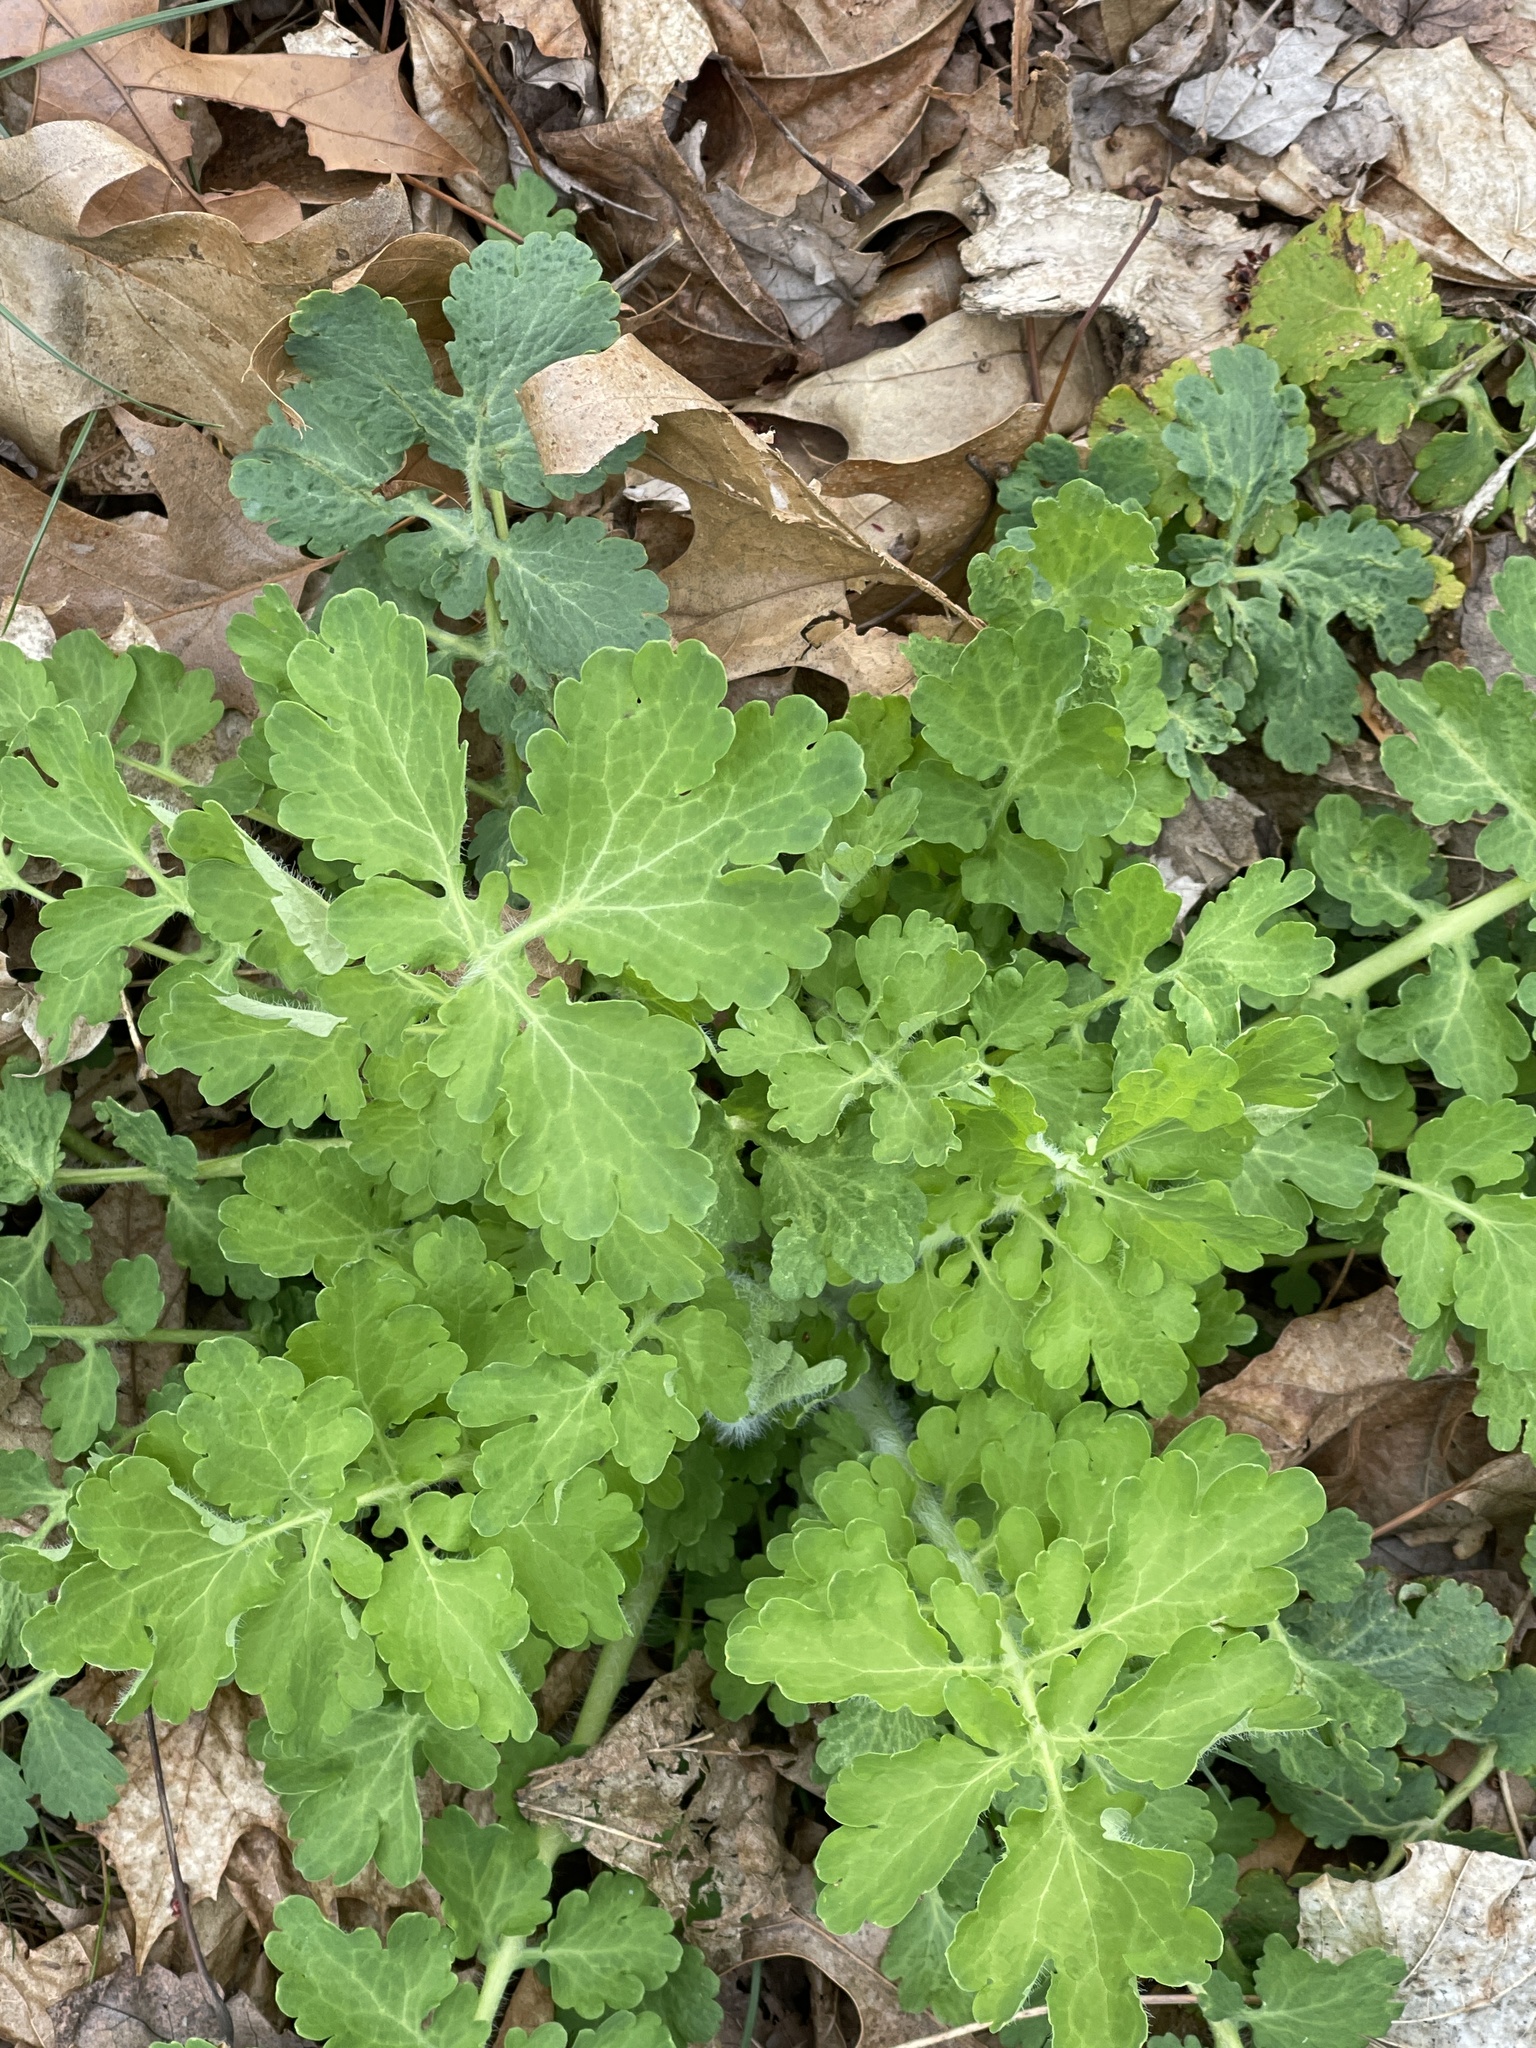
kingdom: Plantae
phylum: Tracheophyta
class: Magnoliopsida
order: Ranunculales
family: Papaveraceae
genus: Chelidonium
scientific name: Chelidonium majus
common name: Greater celandine
